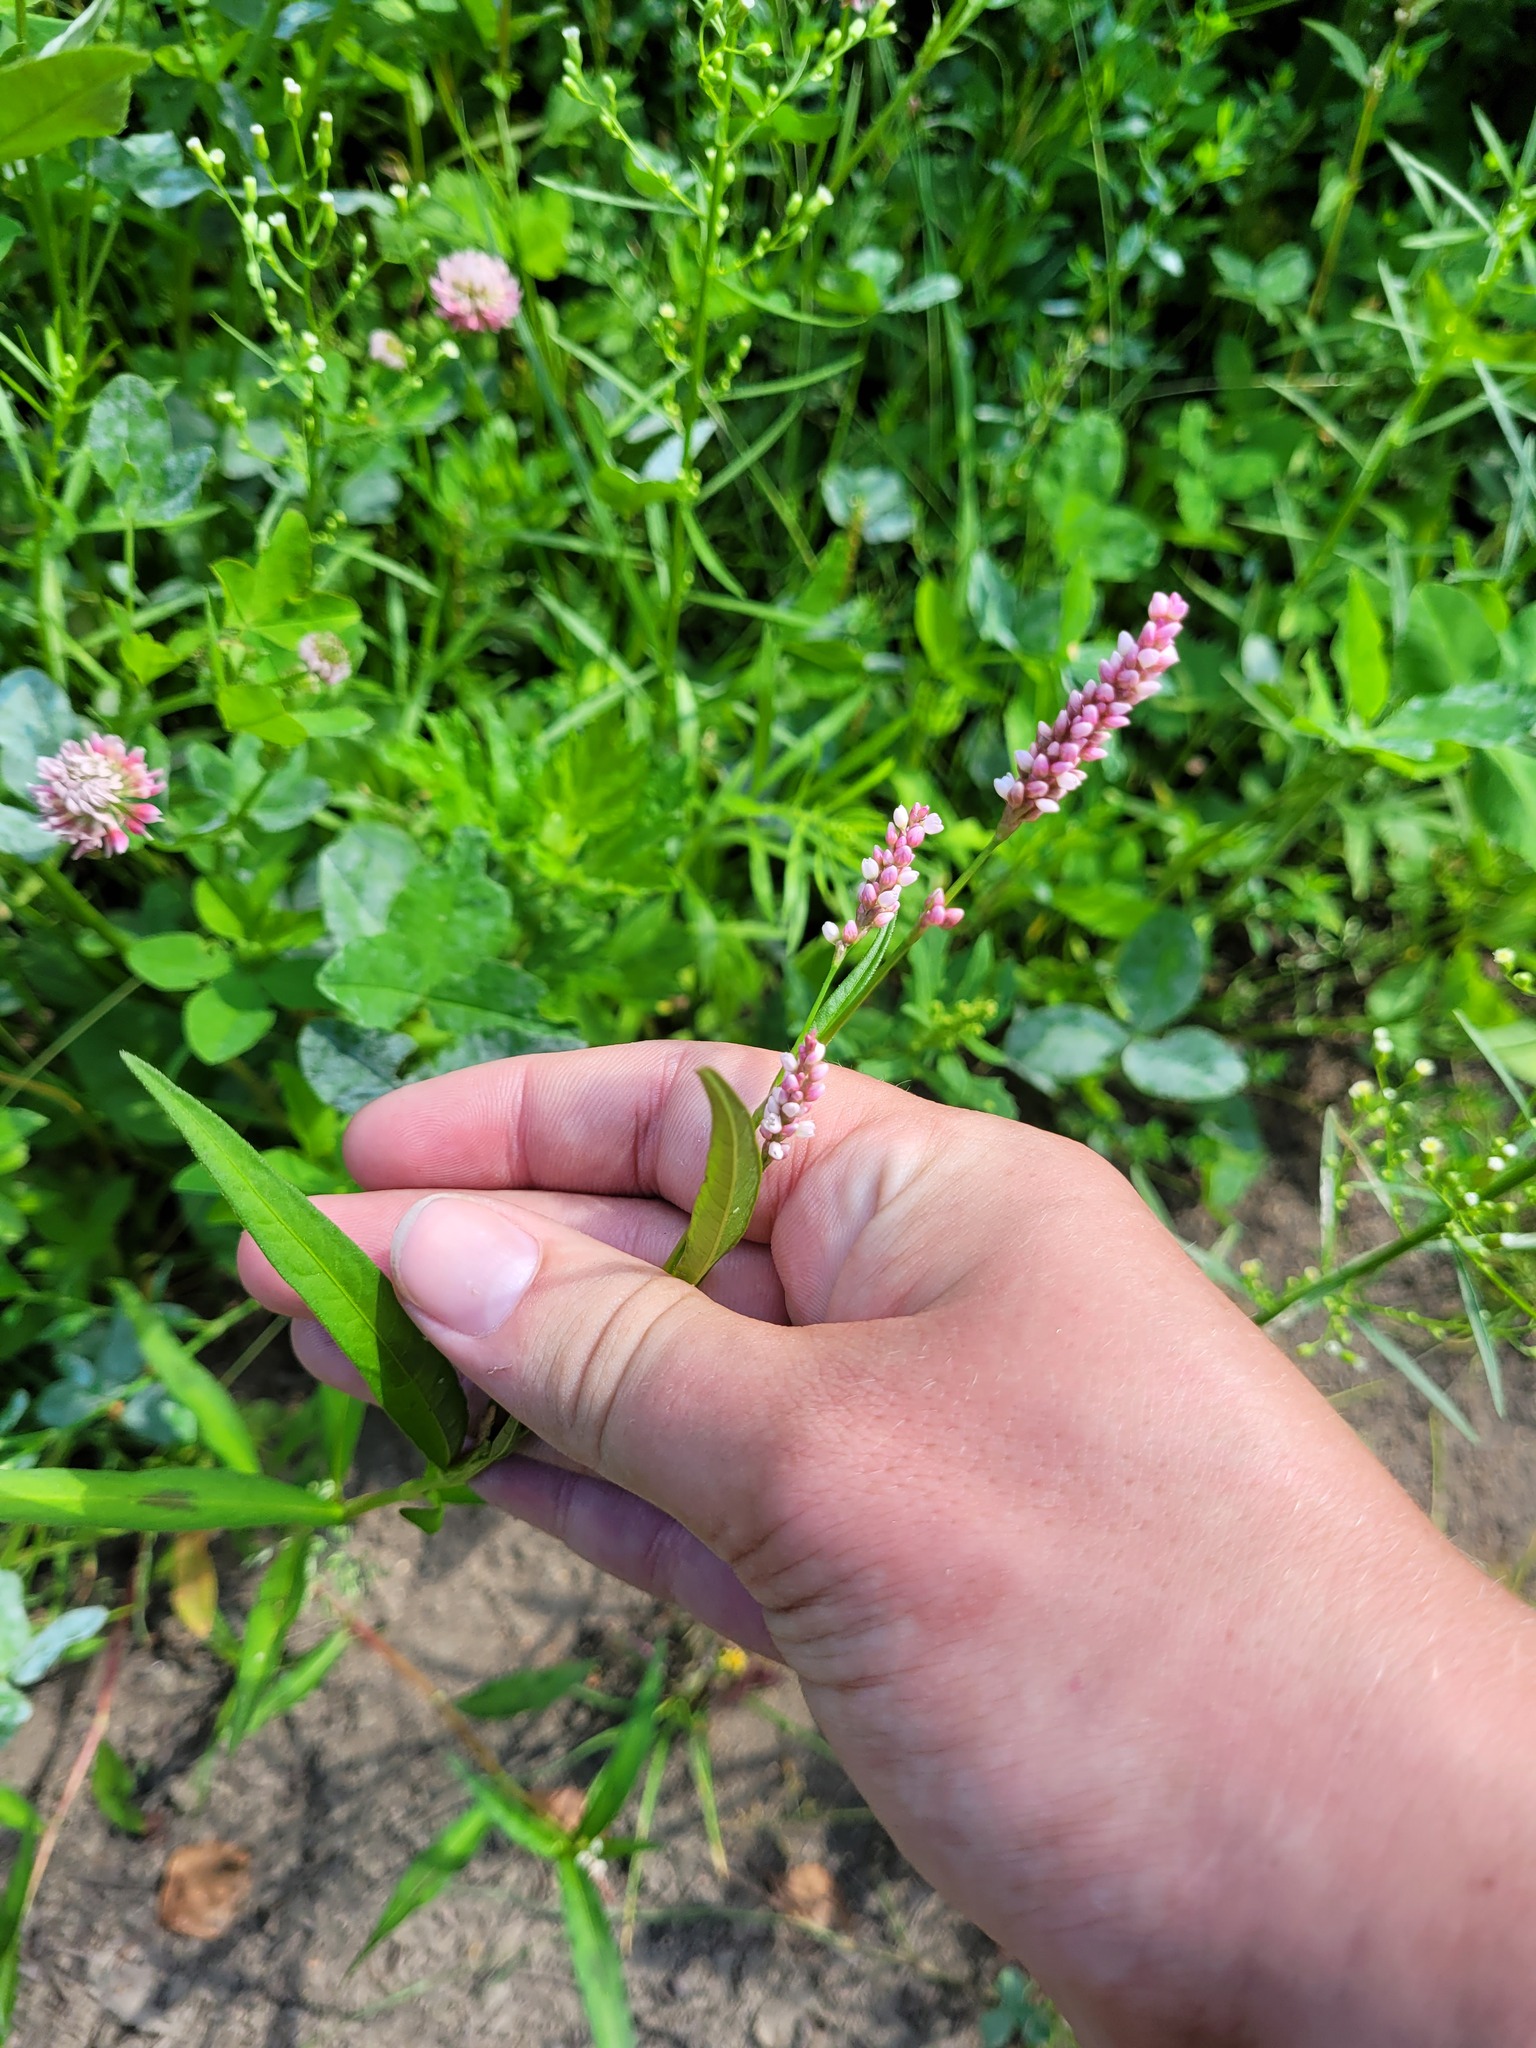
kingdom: Plantae
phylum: Tracheophyta
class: Magnoliopsida
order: Caryophyllales
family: Polygonaceae
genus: Persicaria
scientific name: Persicaria maculosa
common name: Redshank
